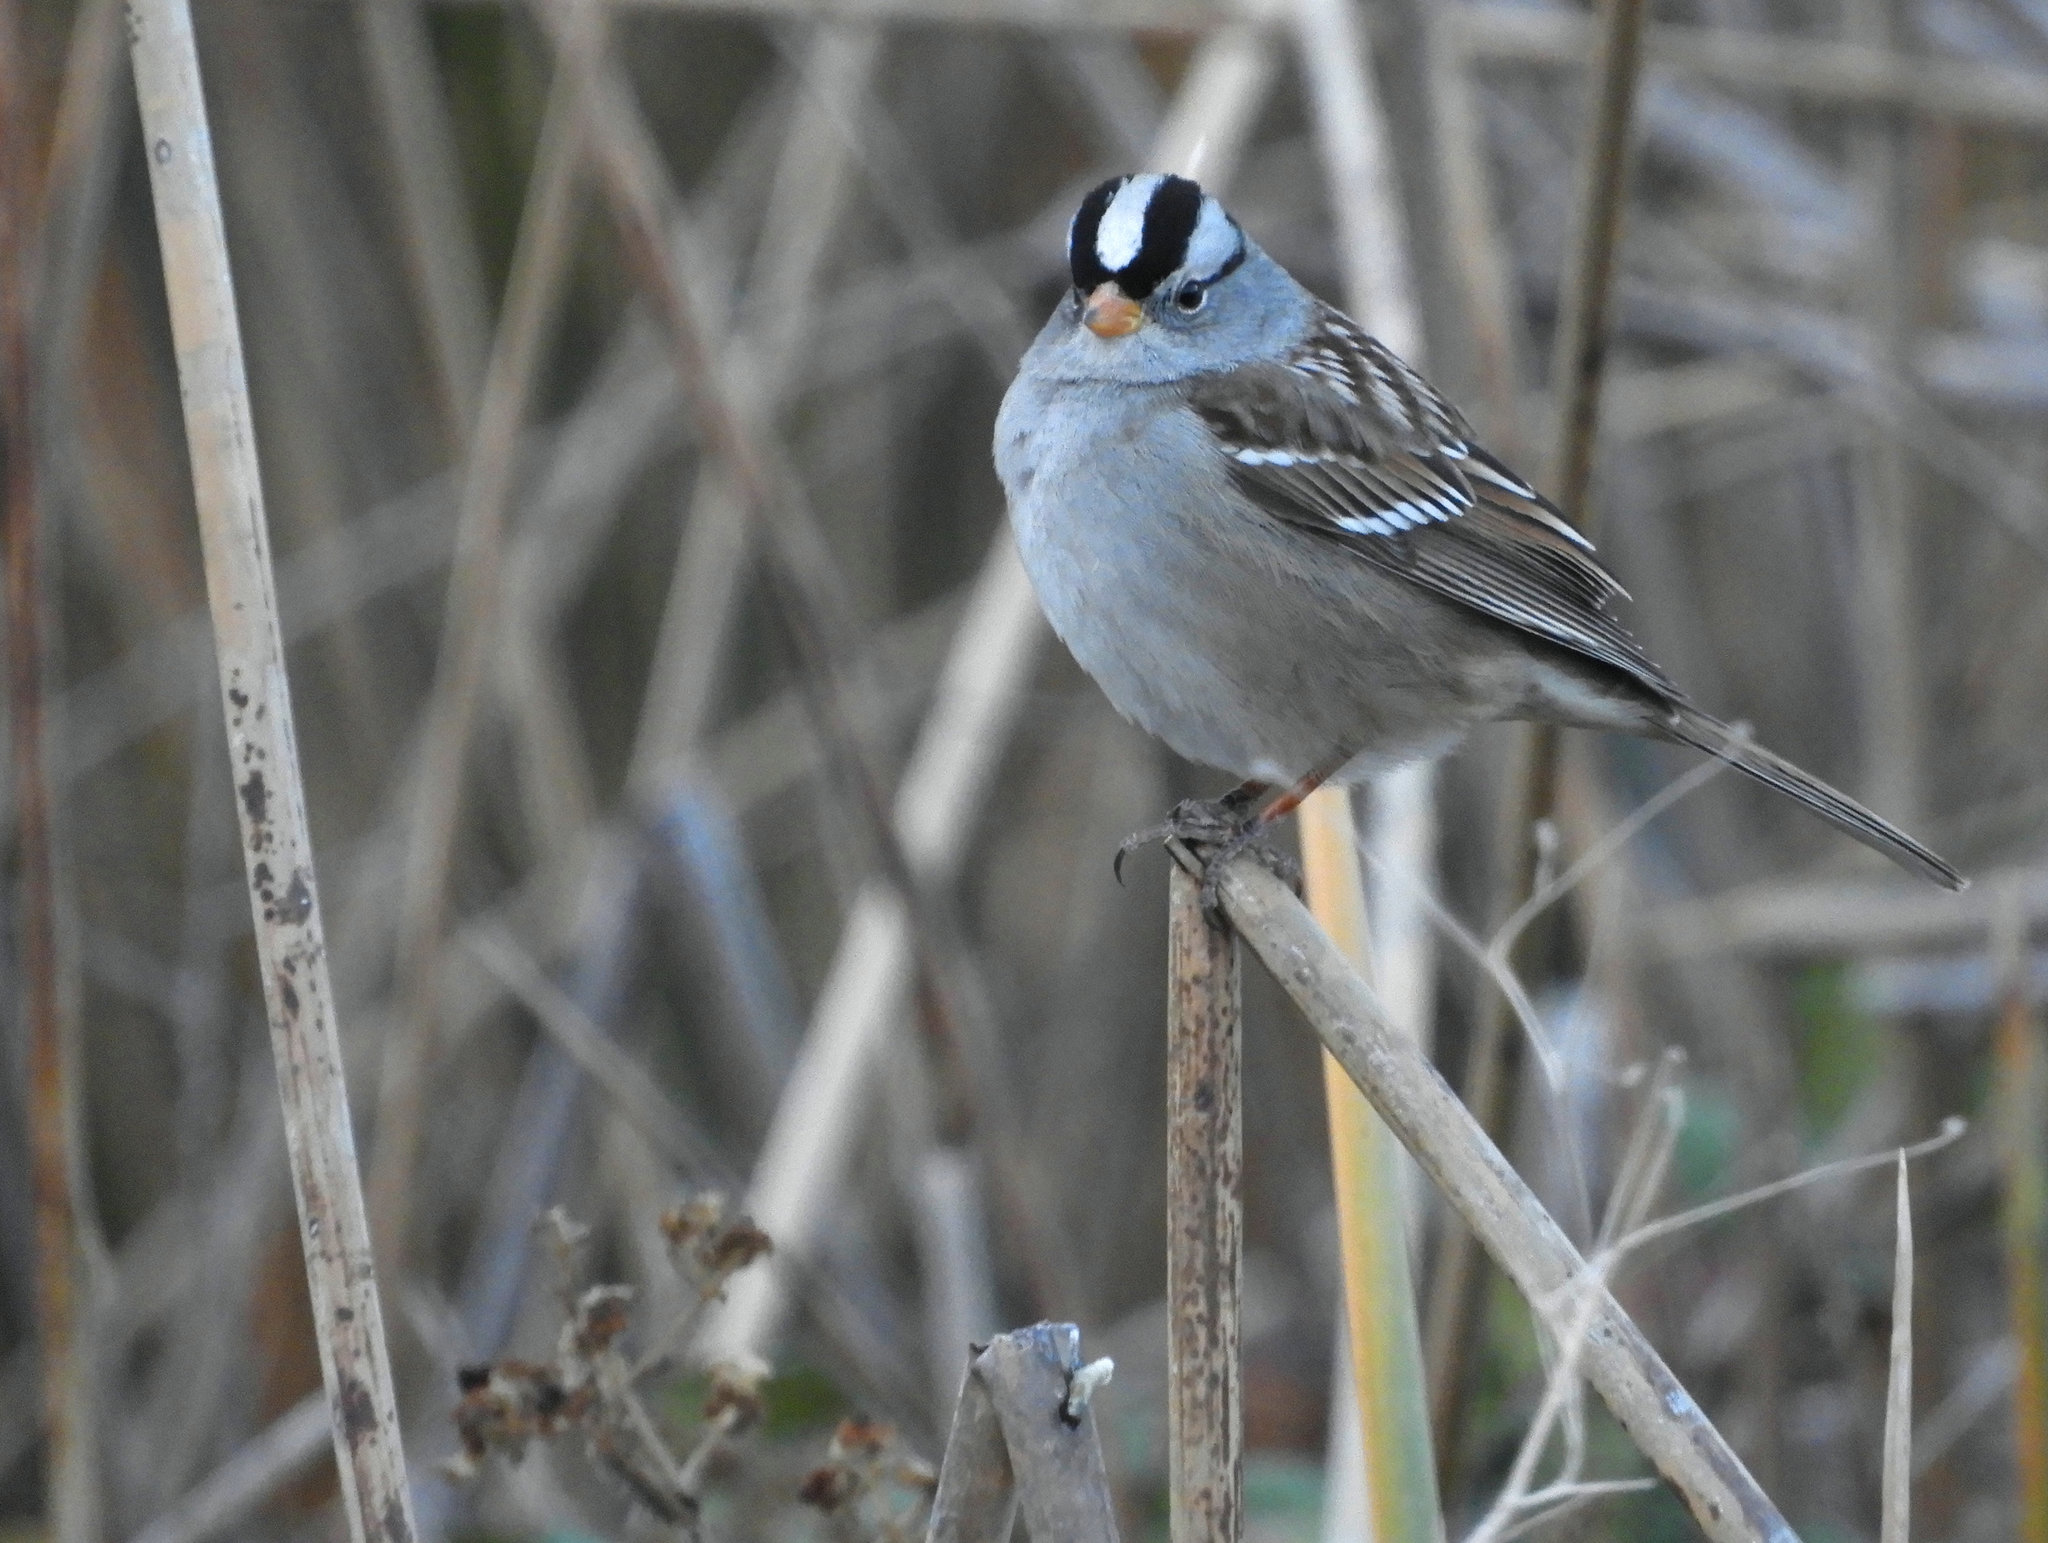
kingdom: Animalia
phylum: Chordata
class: Aves
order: Passeriformes
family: Passerellidae
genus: Zonotrichia
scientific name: Zonotrichia leucophrys
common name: White-crowned sparrow
